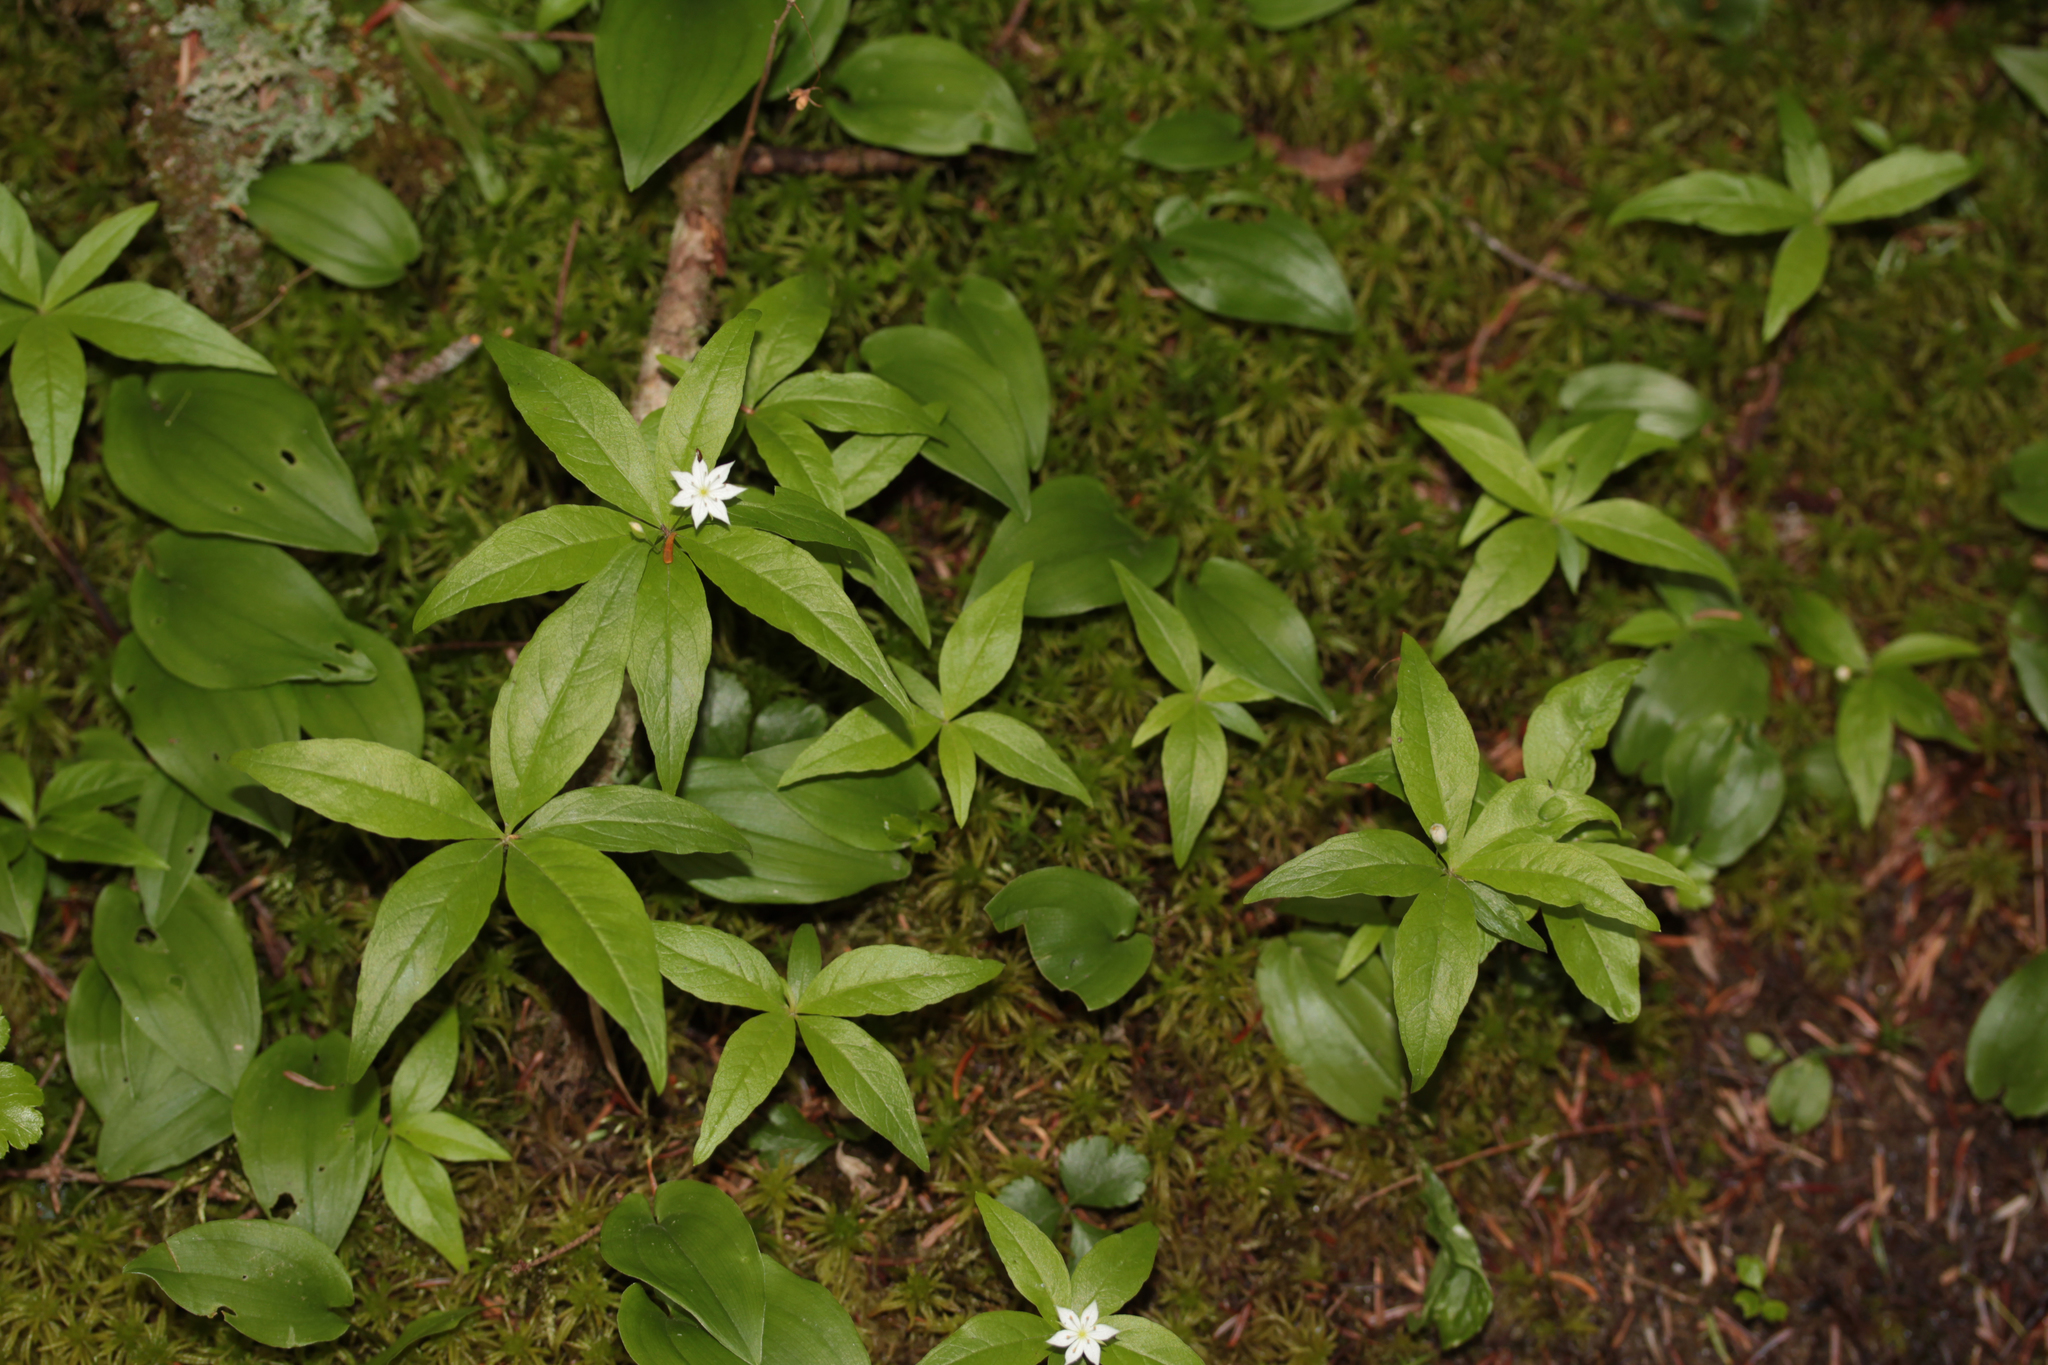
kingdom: Plantae
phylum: Tracheophyta
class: Magnoliopsida
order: Ericales
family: Primulaceae
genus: Lysimachia
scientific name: Lysimachia borealis
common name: American starflower
